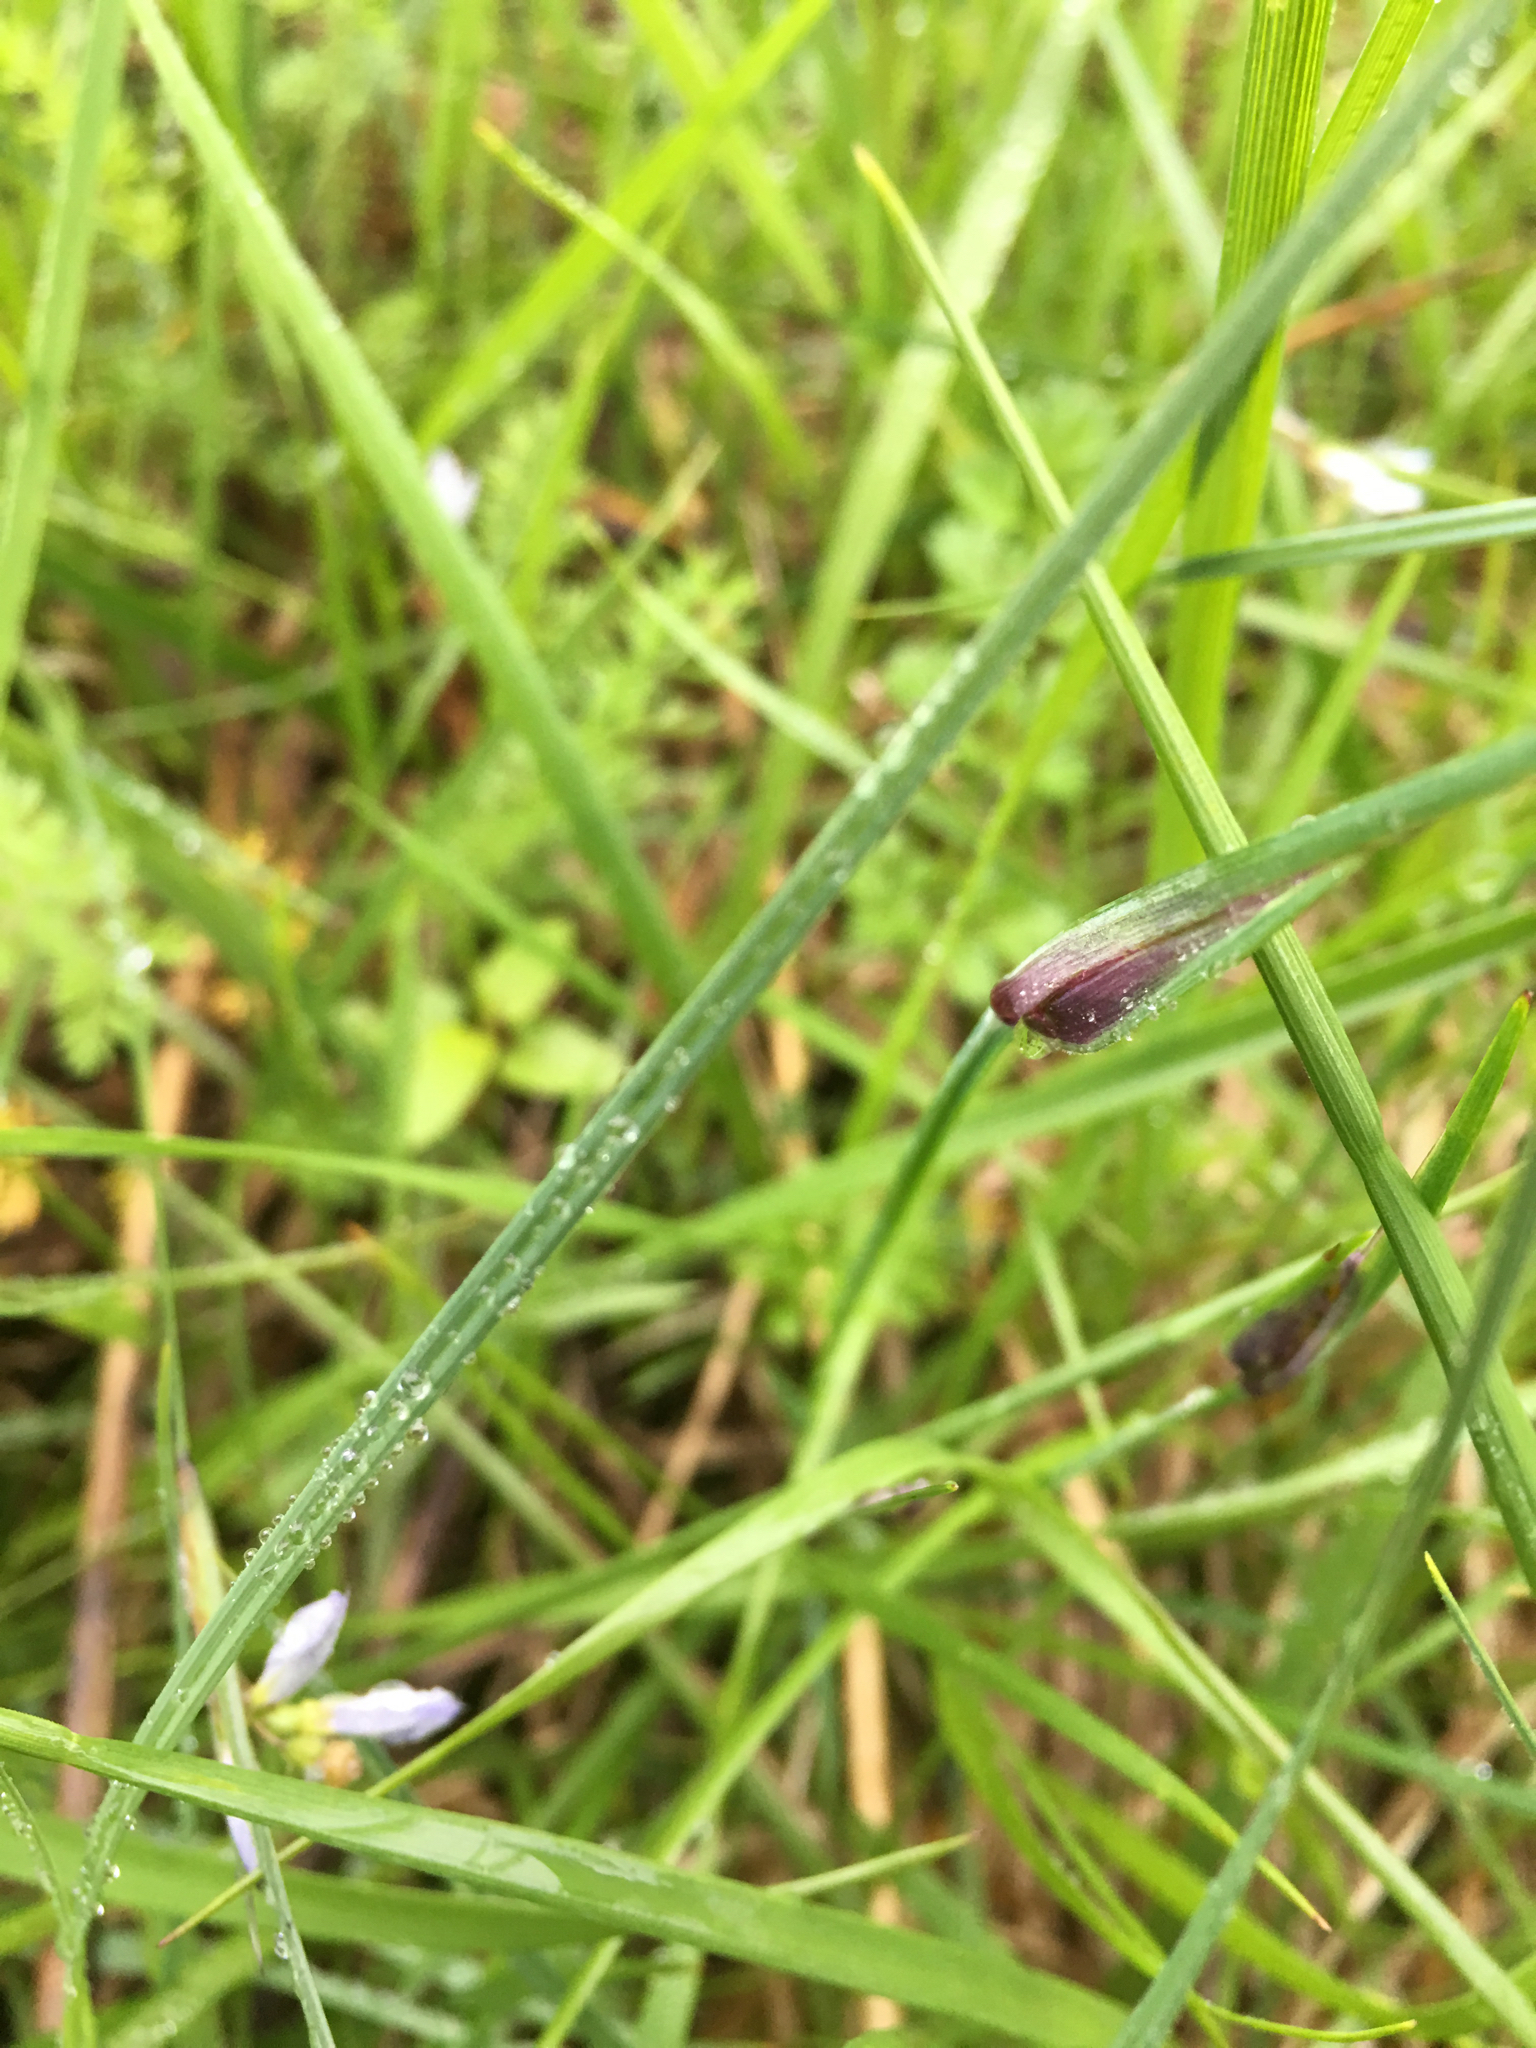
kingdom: Plantae
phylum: Tracheophyta
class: Liliopsida
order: Asparagales
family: Iridaceae
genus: Sisyrinchium
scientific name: Sisyrinchium campestre
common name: Prairie blue-eyed-grass
